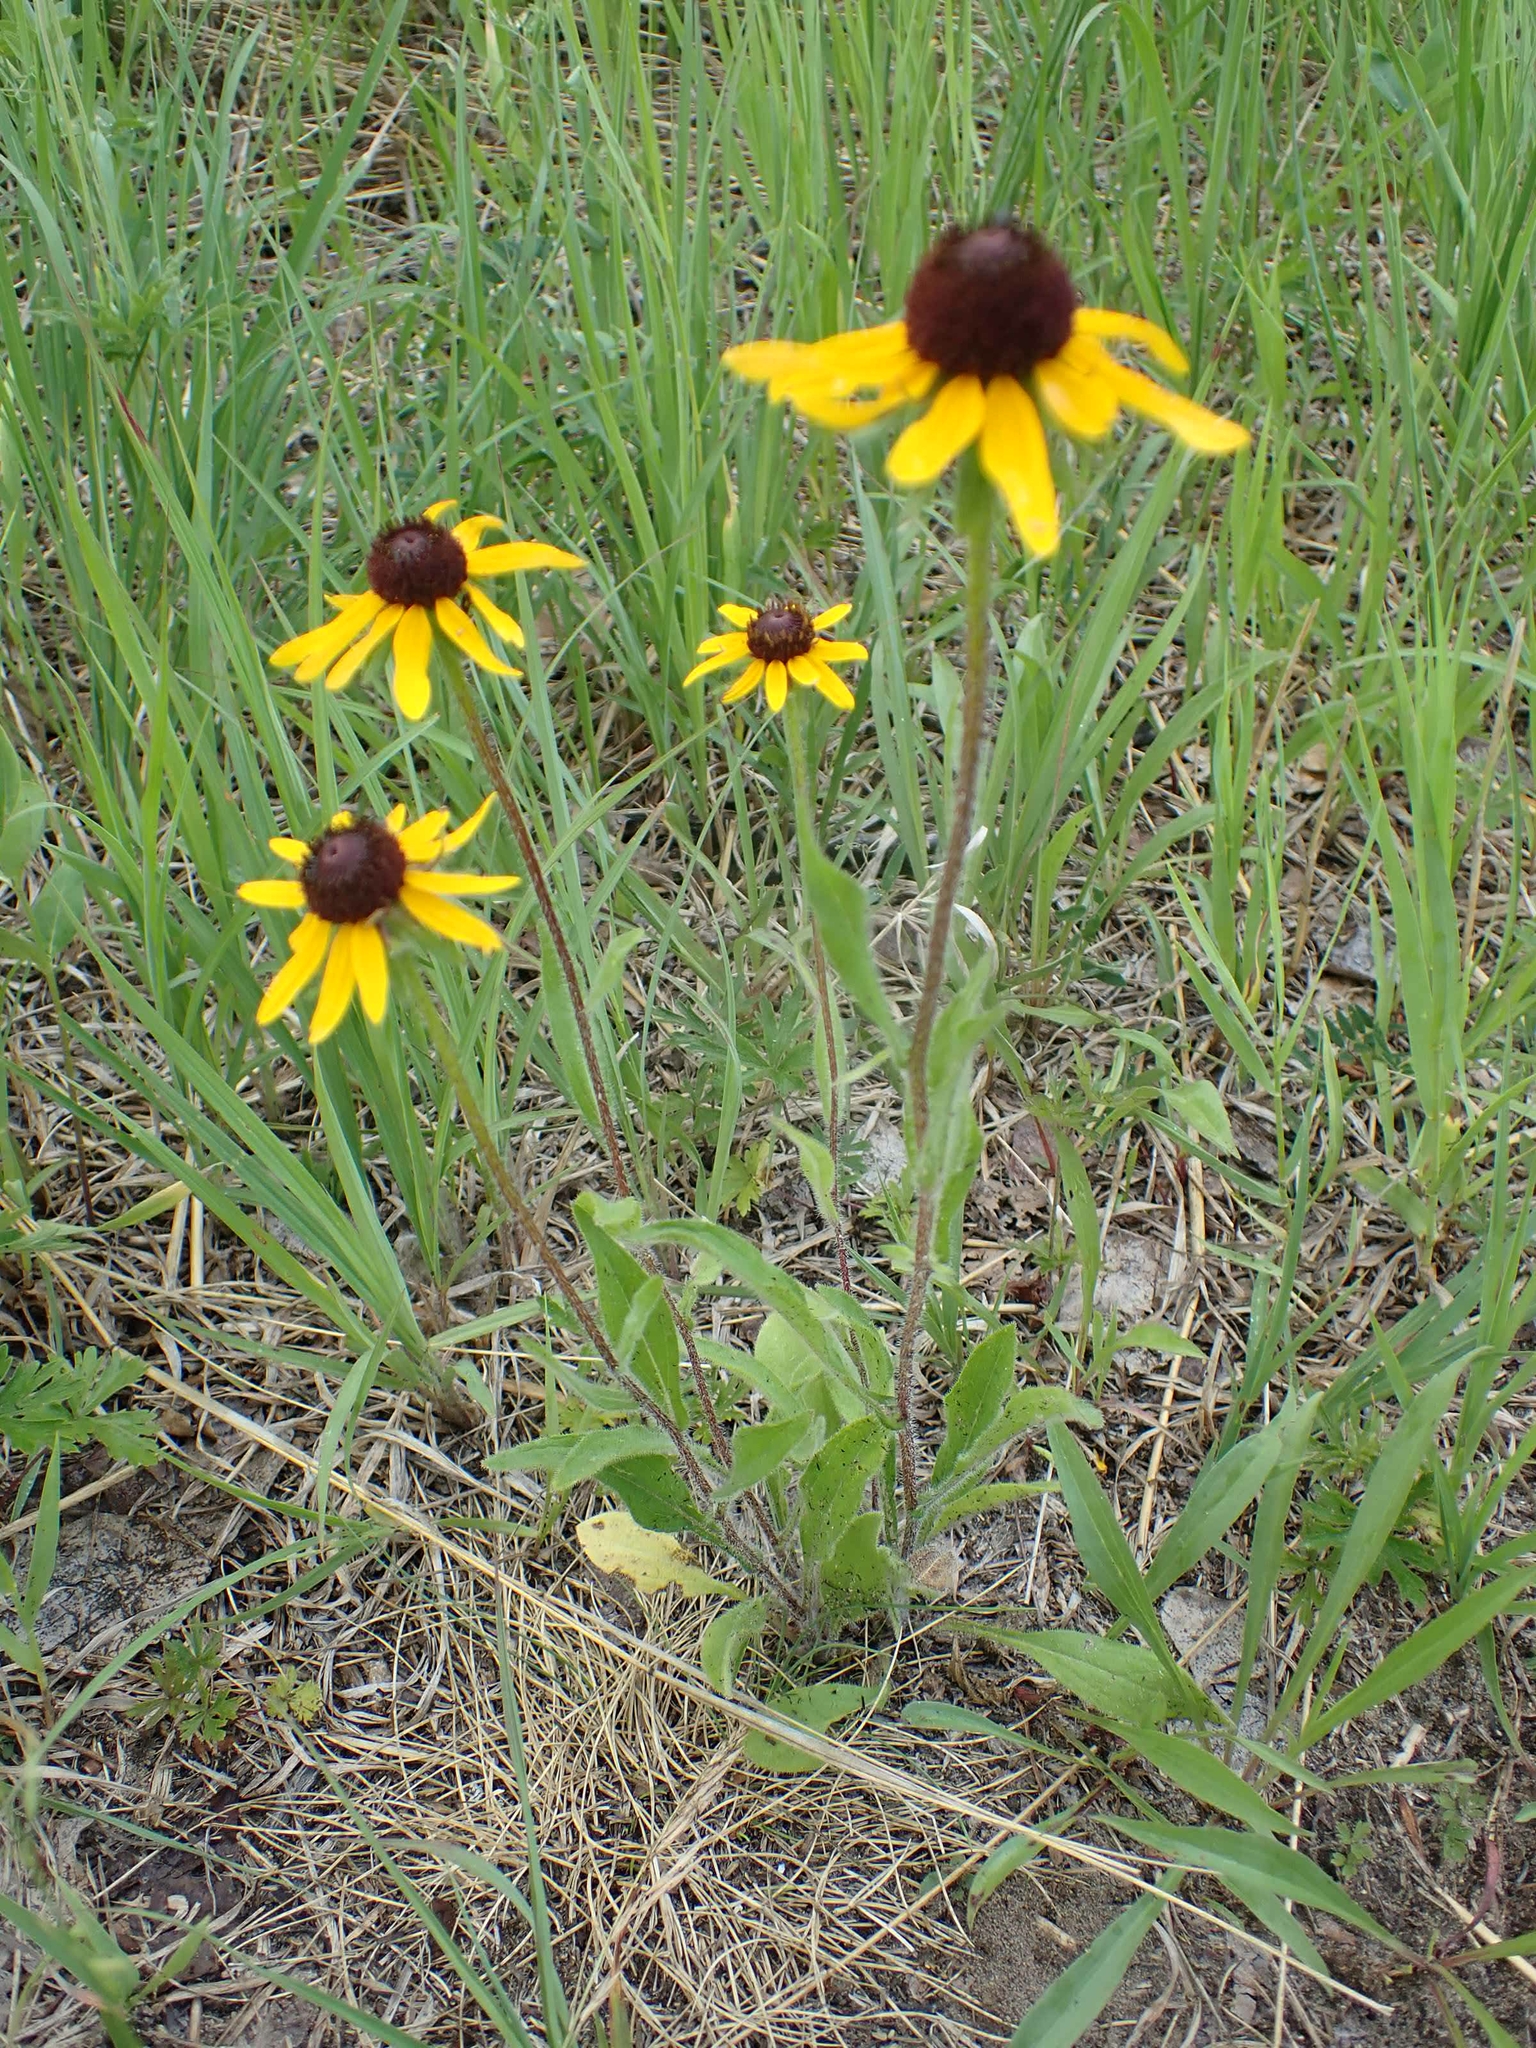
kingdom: Plantae
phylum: Tracheophyta
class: Magnoliopsida
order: Asterales
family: Asteraceae
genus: Rudbeckia
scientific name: Rudbeckia hirta
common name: Black-eyed-susan
